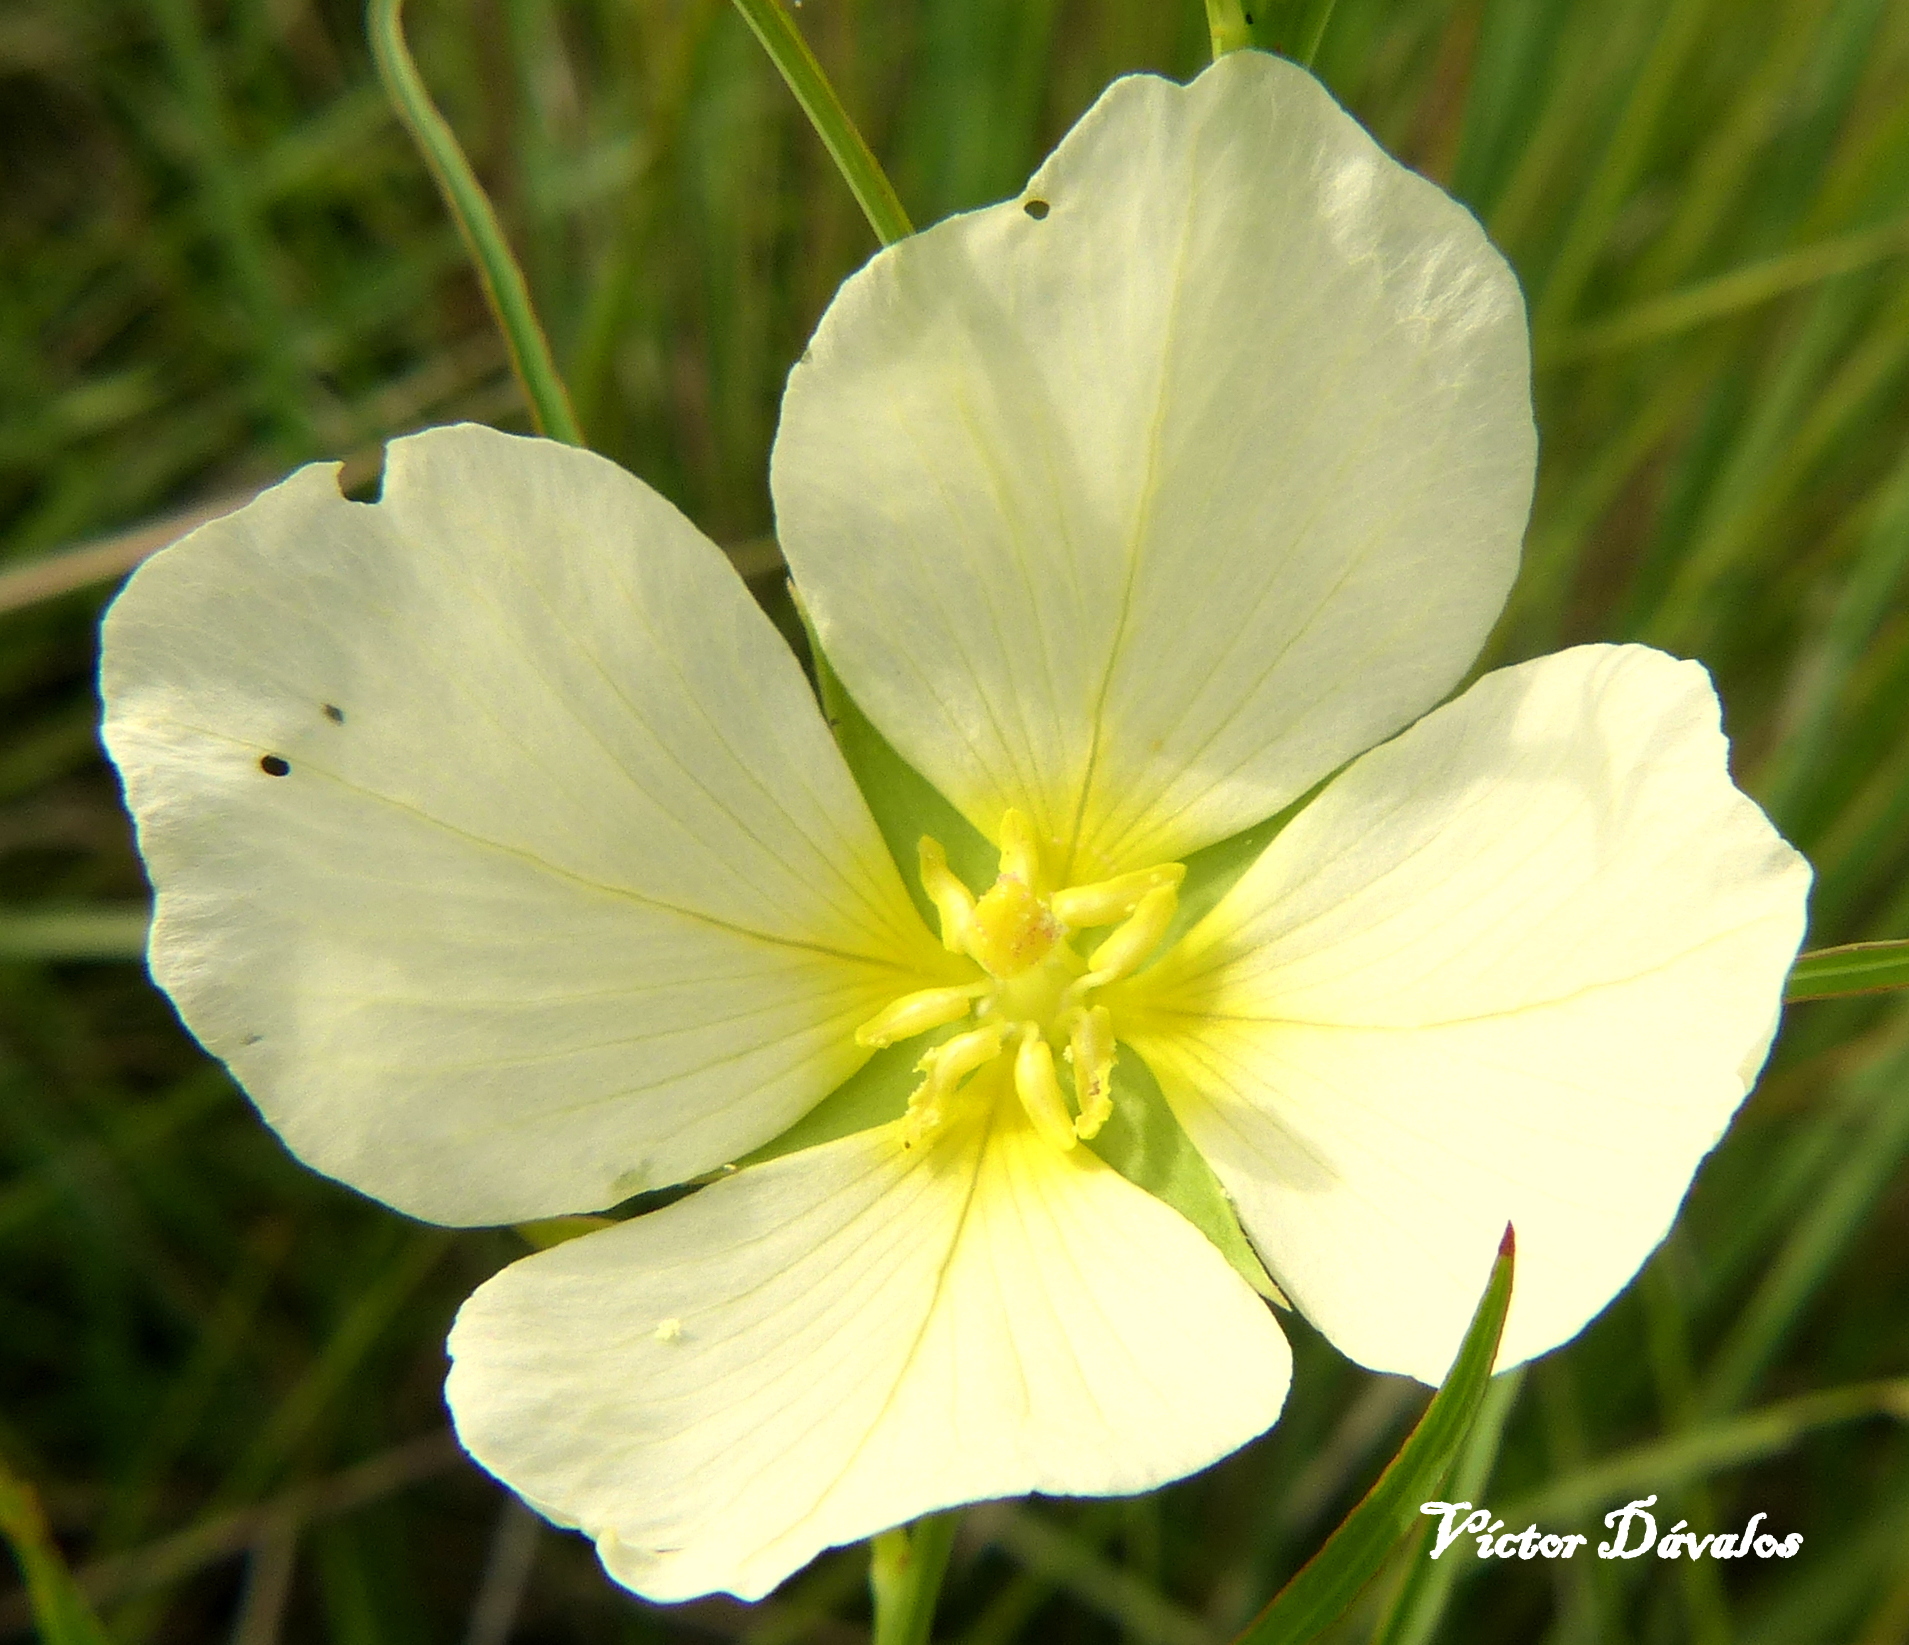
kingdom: Plantae
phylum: Tracheophyta
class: Magnoliopsida
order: Myrtales
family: Onagraceae
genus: Ludwigia
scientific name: Ludwigia major
